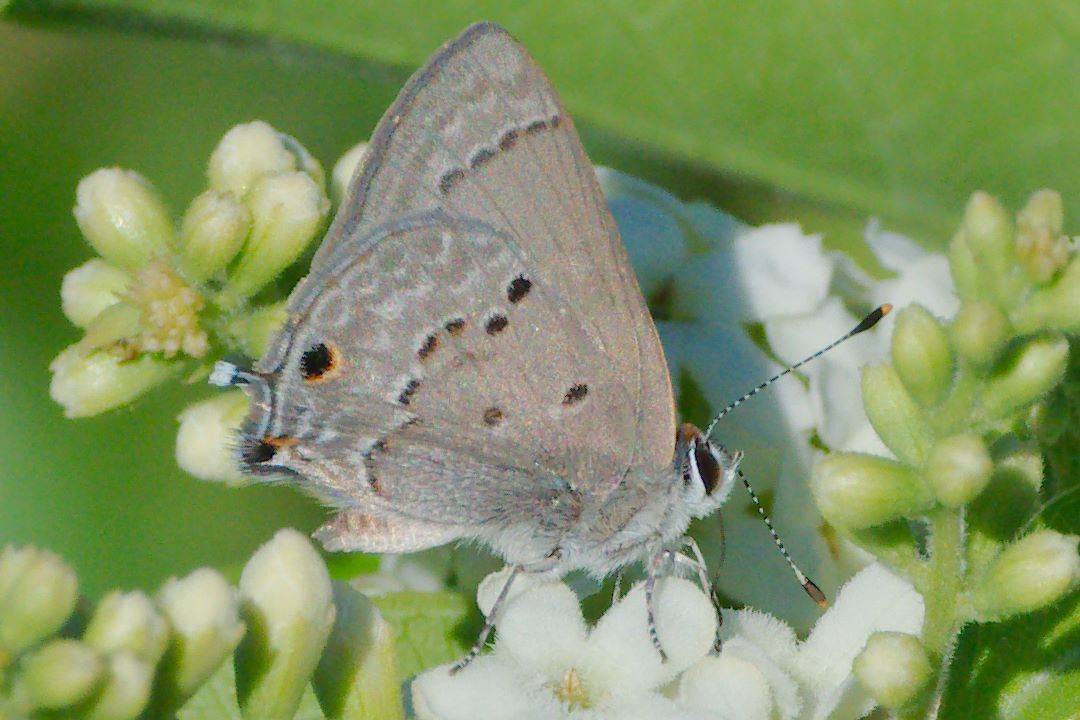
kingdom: Animalia
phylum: Arthropoda
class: Insecta
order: Lepidoptera
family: Lycaenidae
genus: Callicista
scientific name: Callicista columella
